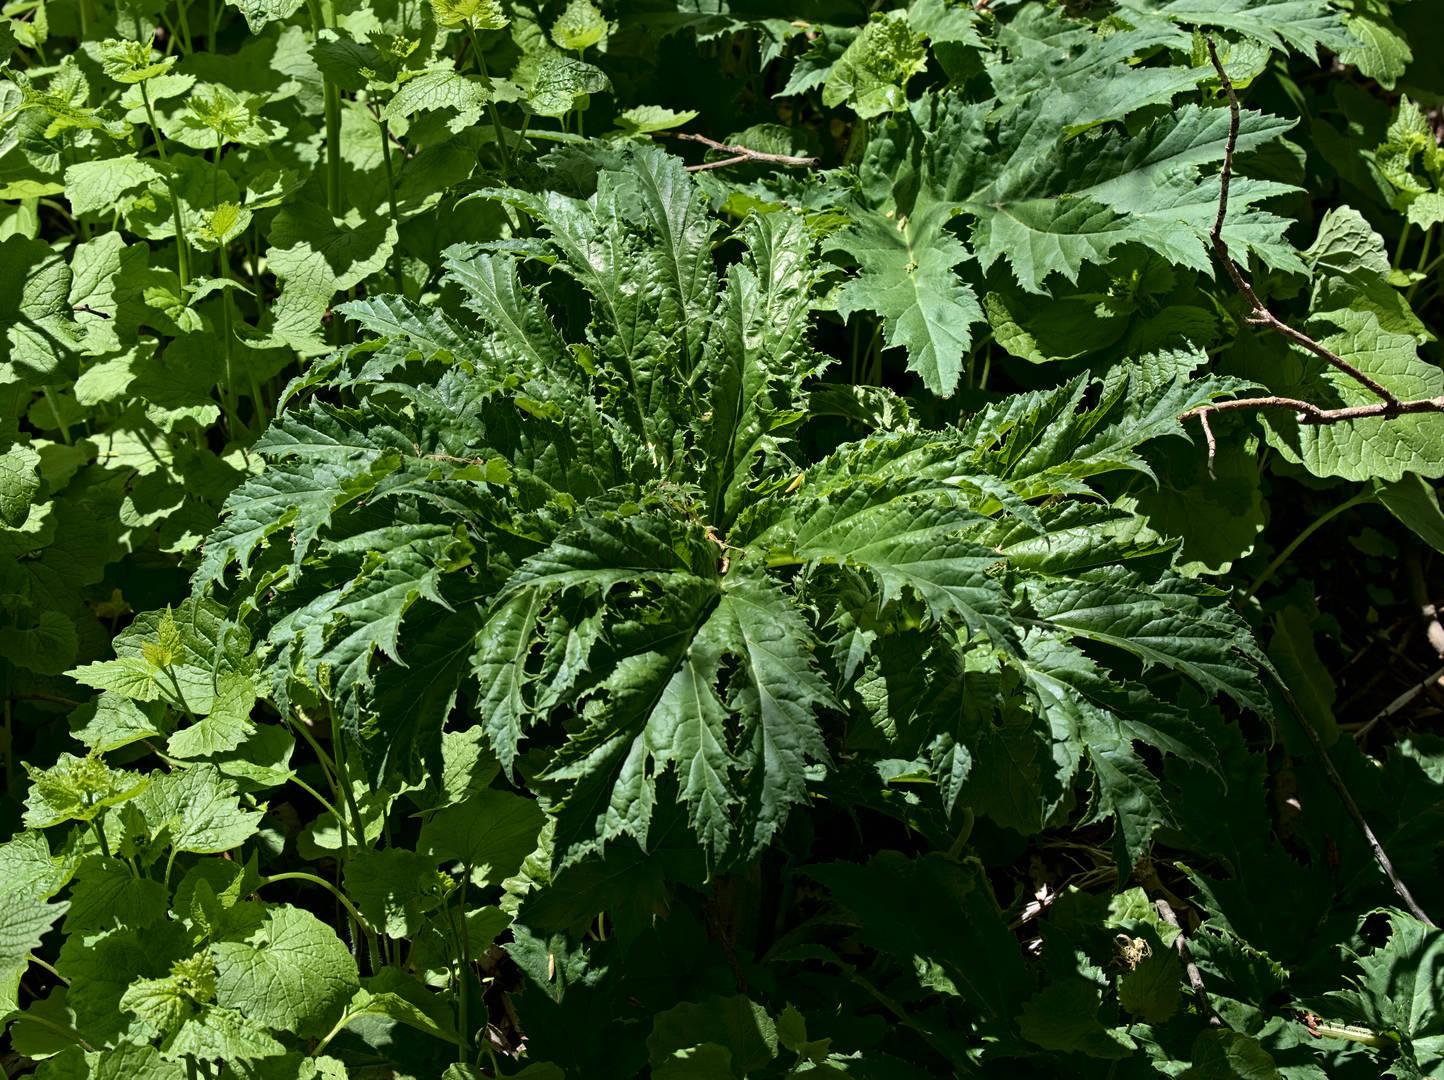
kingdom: Plantae
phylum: Tracheophyta
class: Magnoliopsida
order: Apiales
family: Apiaceae
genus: Heracleum
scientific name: Heracleum mantegazzianum
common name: Giant hogweed
